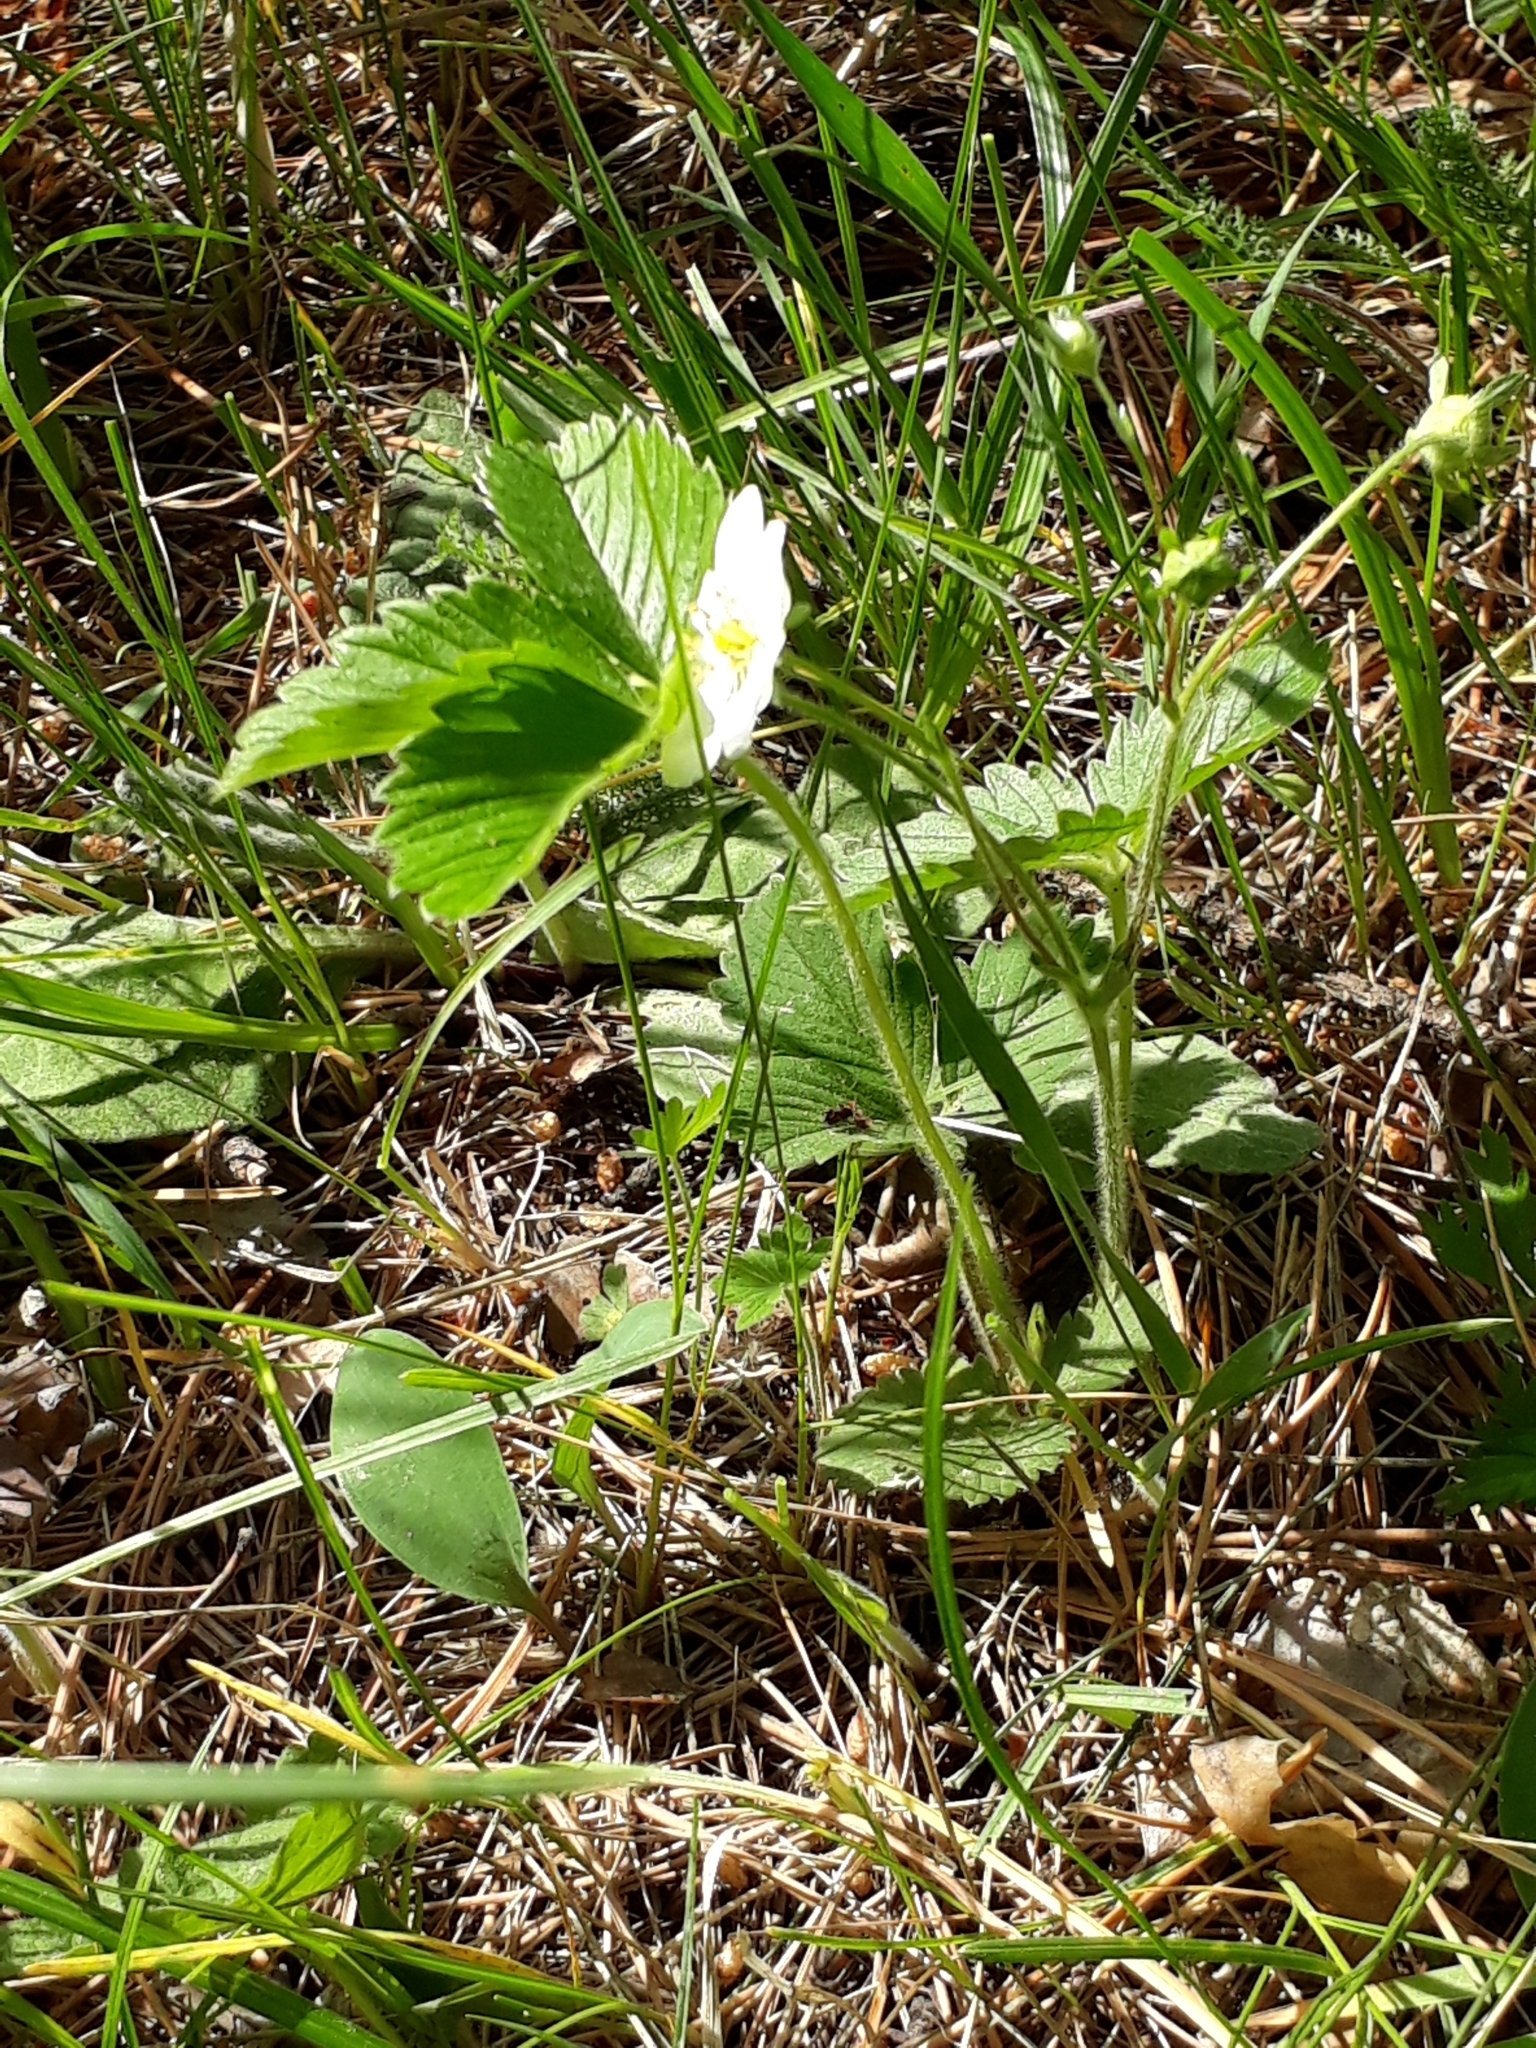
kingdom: Plantae
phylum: Tracheophyta
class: Magnoliopsida
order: Rosales
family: Rosaceae
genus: Fragaria
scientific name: Fragaria viridis
